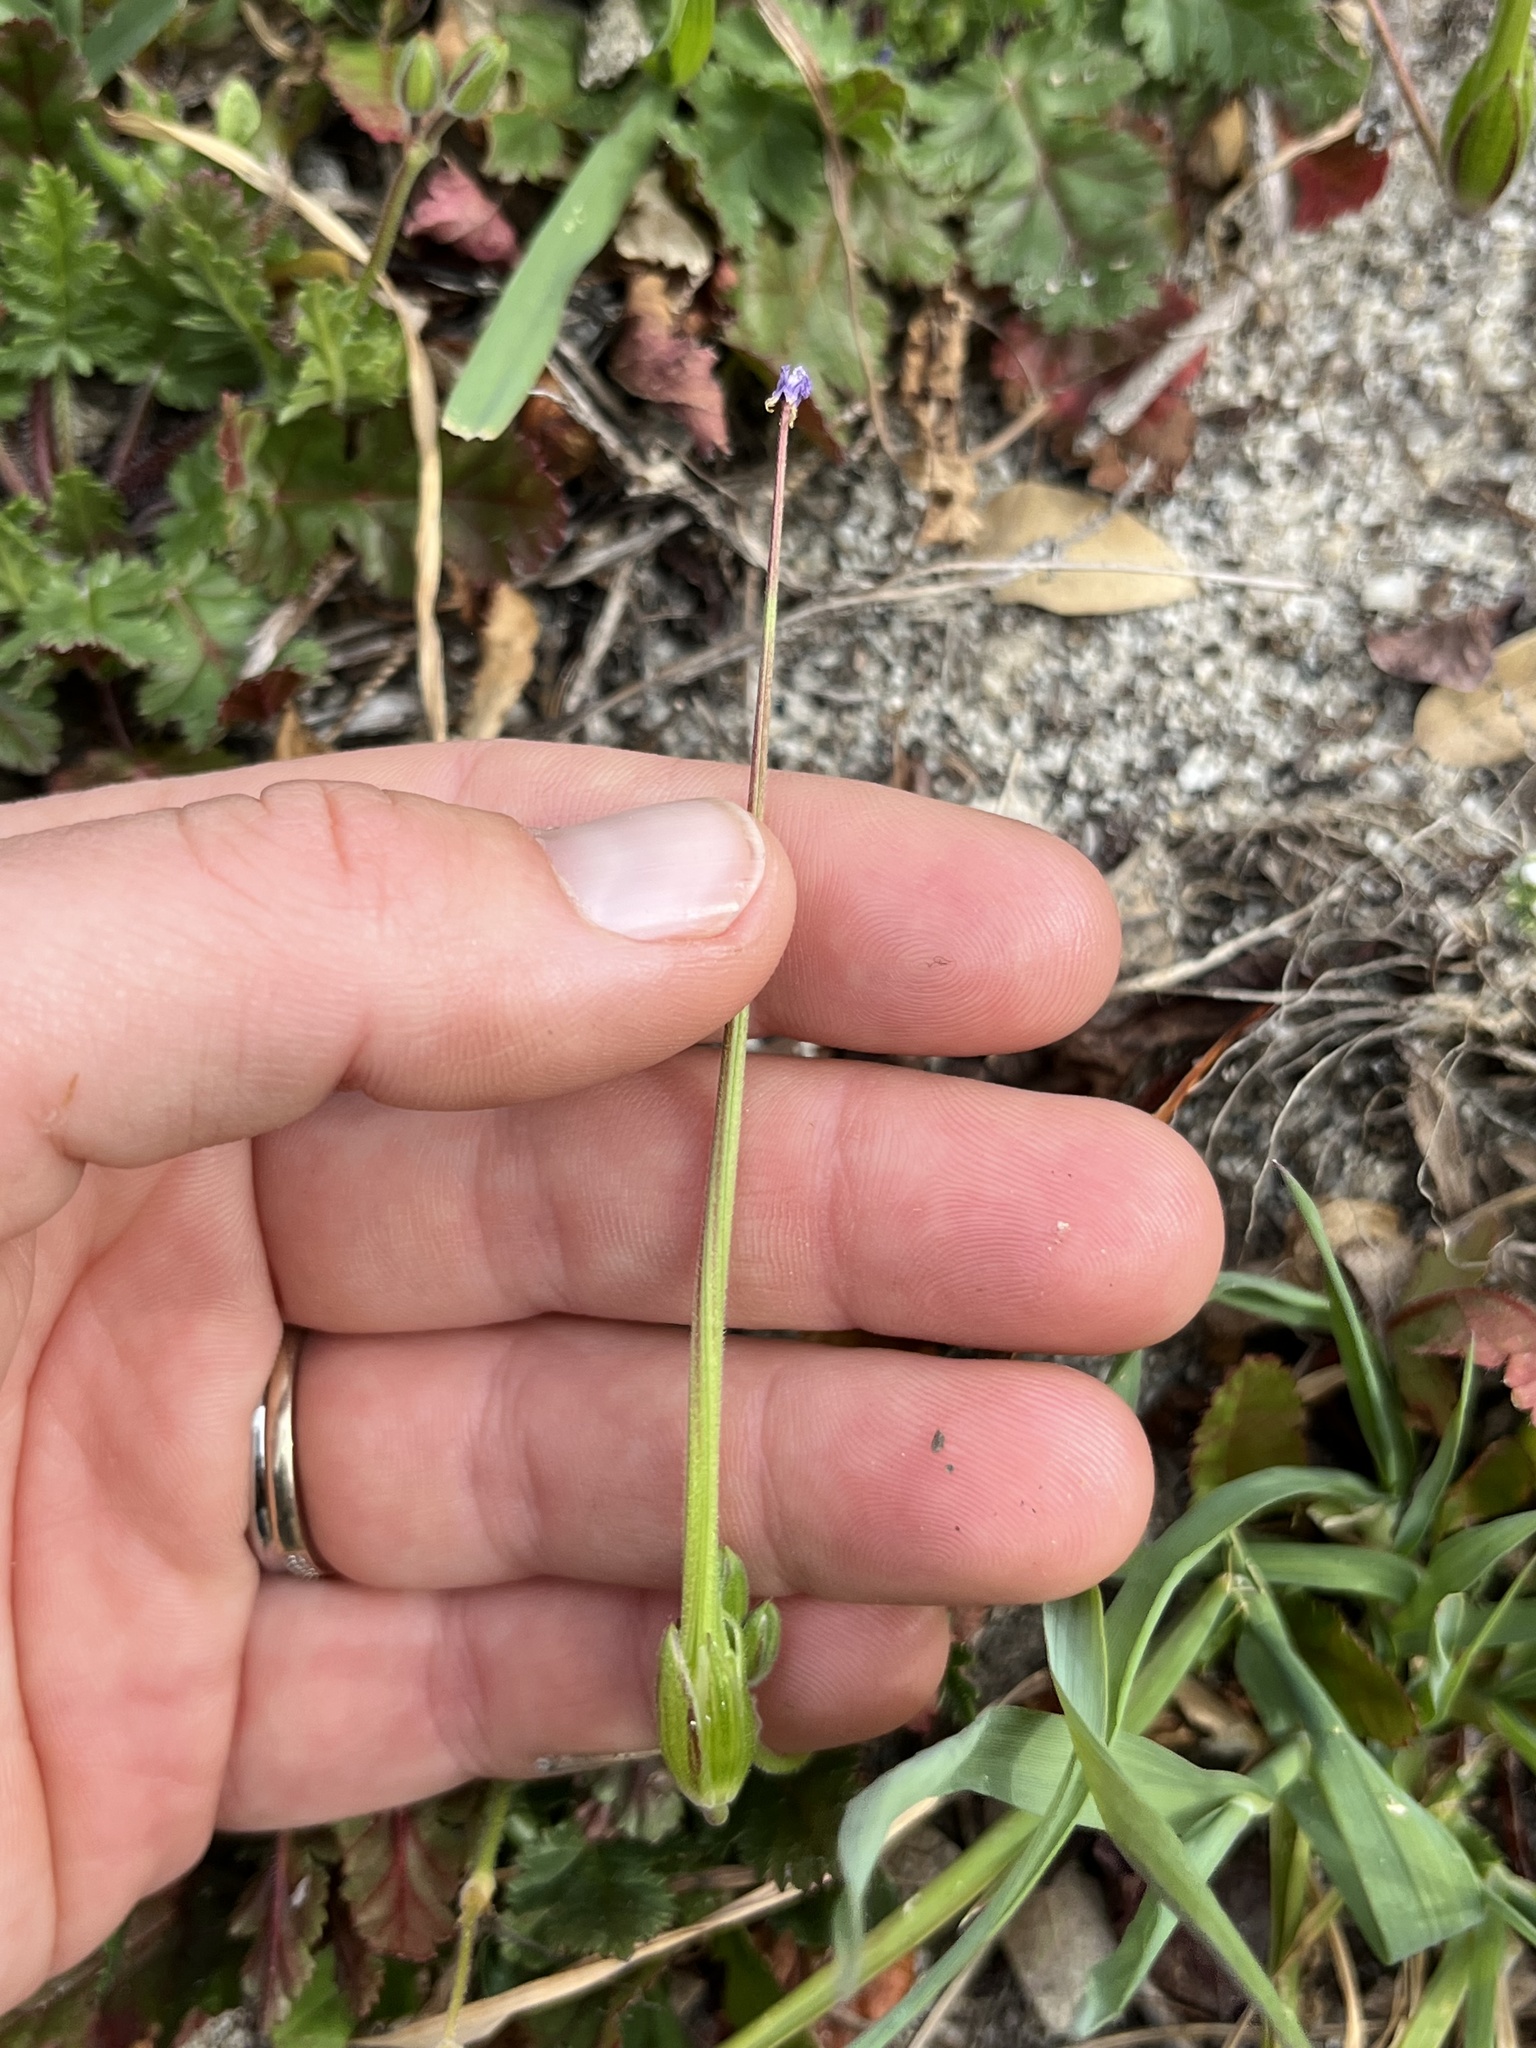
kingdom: Plantae
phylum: Tracheophyta
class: Magnoliopsida
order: Geraniales
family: Geraniaceae
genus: Erodium
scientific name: Erodium botrys
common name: Mediterranean stork's-bill
